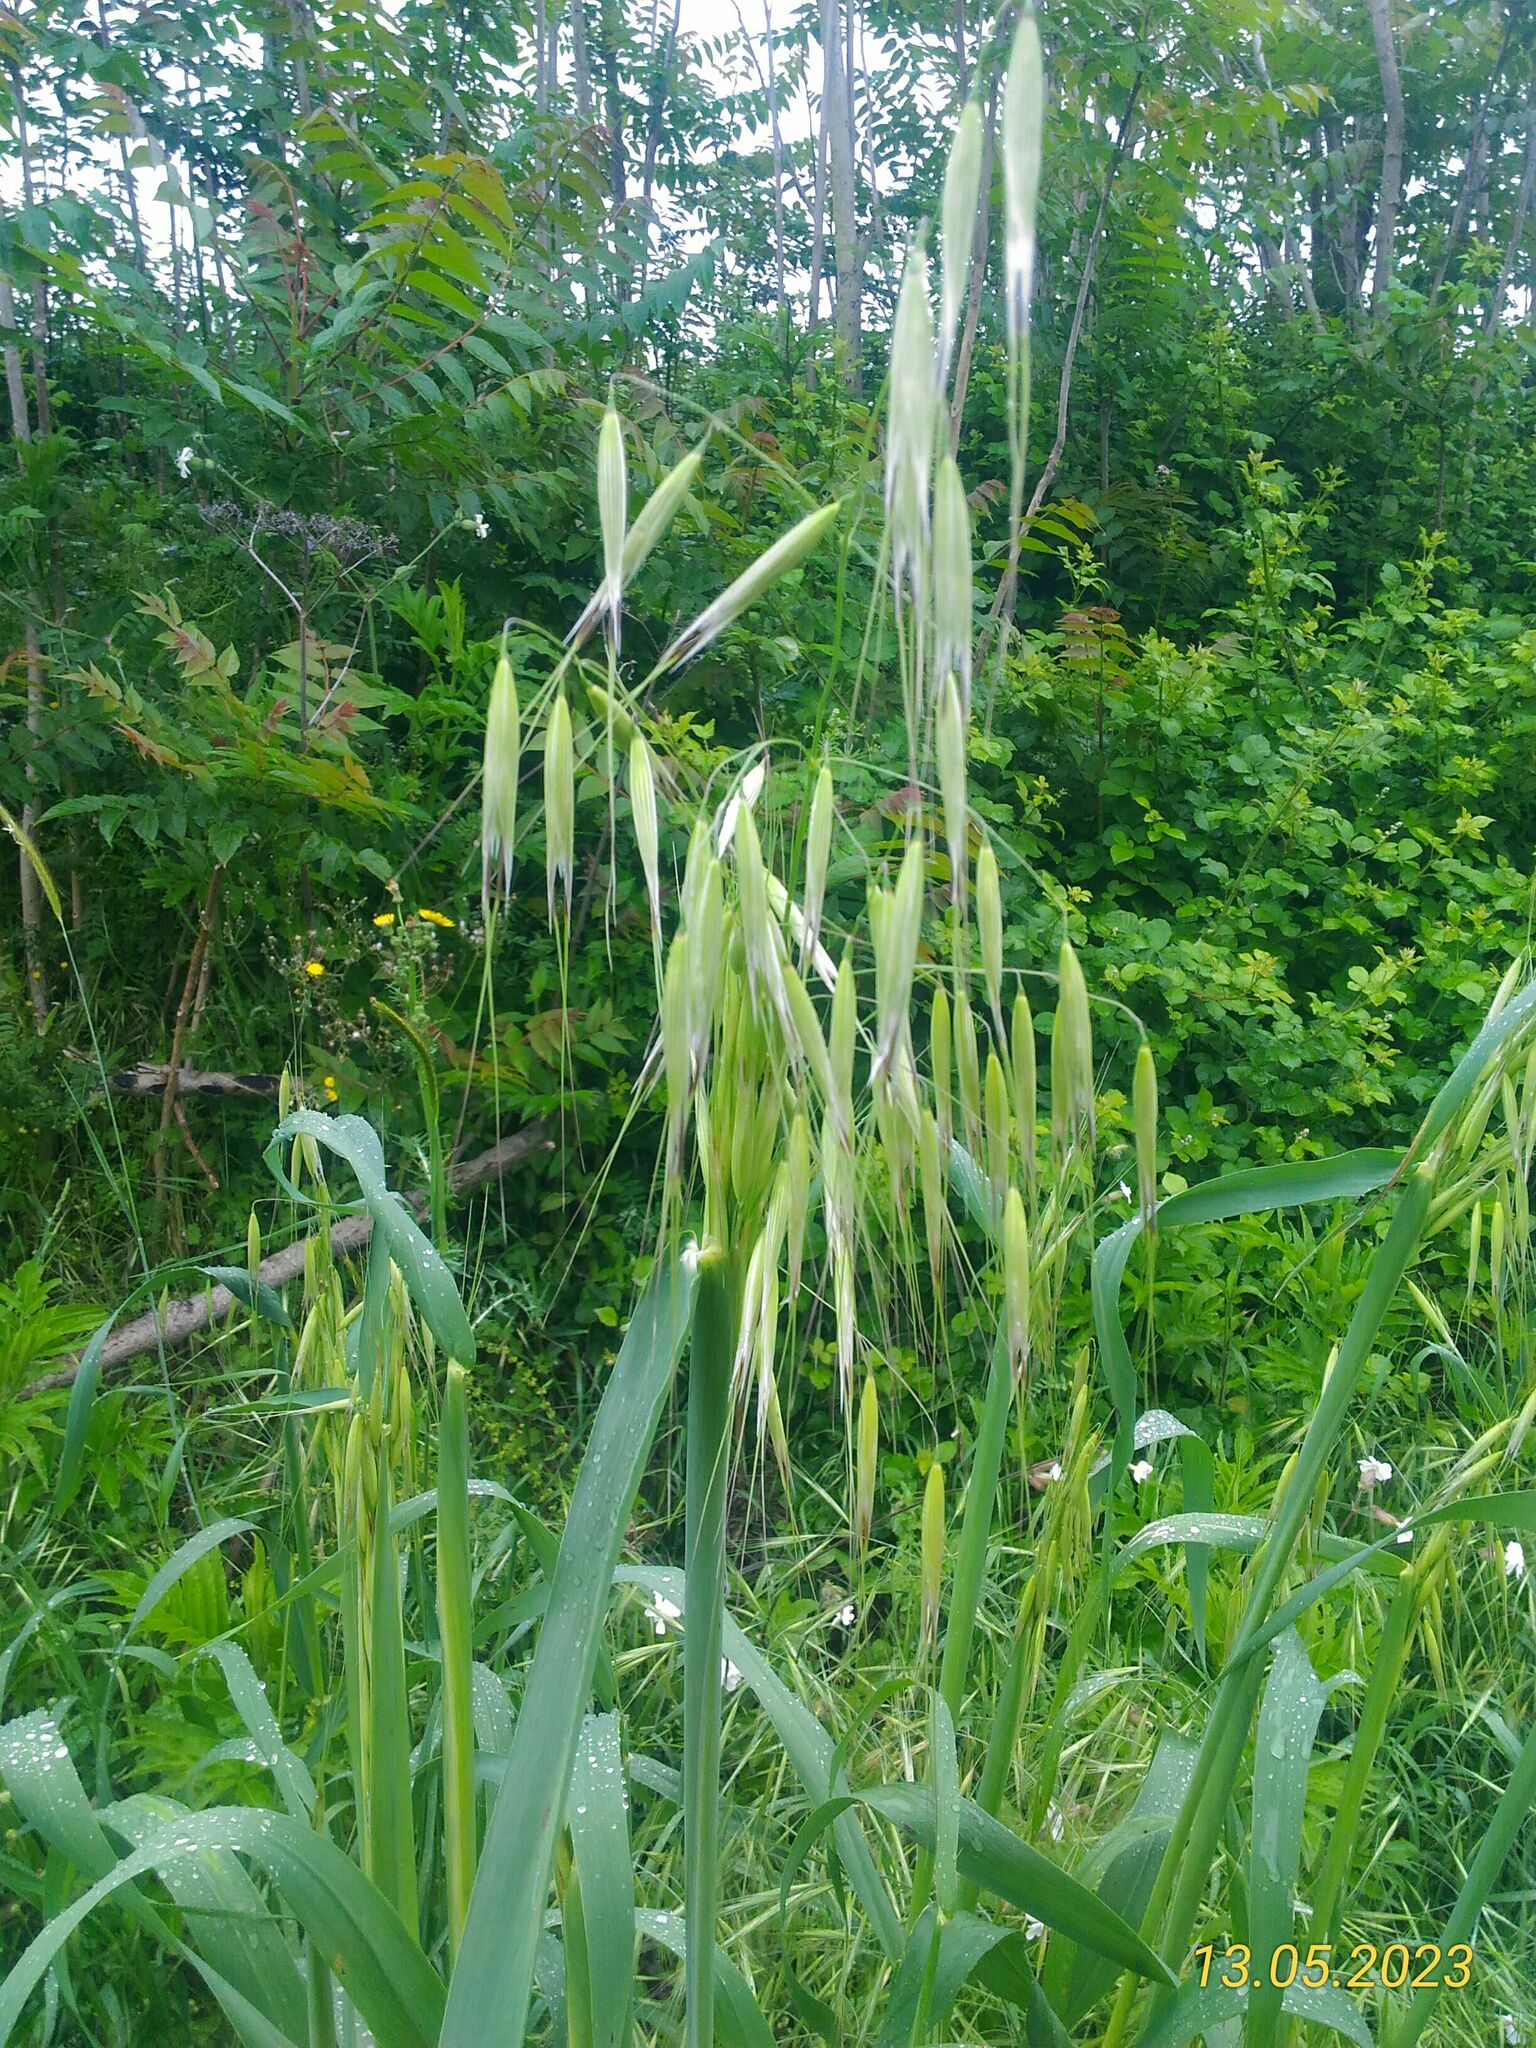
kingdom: Plantae
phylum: Tracheophyta
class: Liliopsida
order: Poales
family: Poaceae
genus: Avena
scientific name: Avena sterilis
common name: Animated oat
